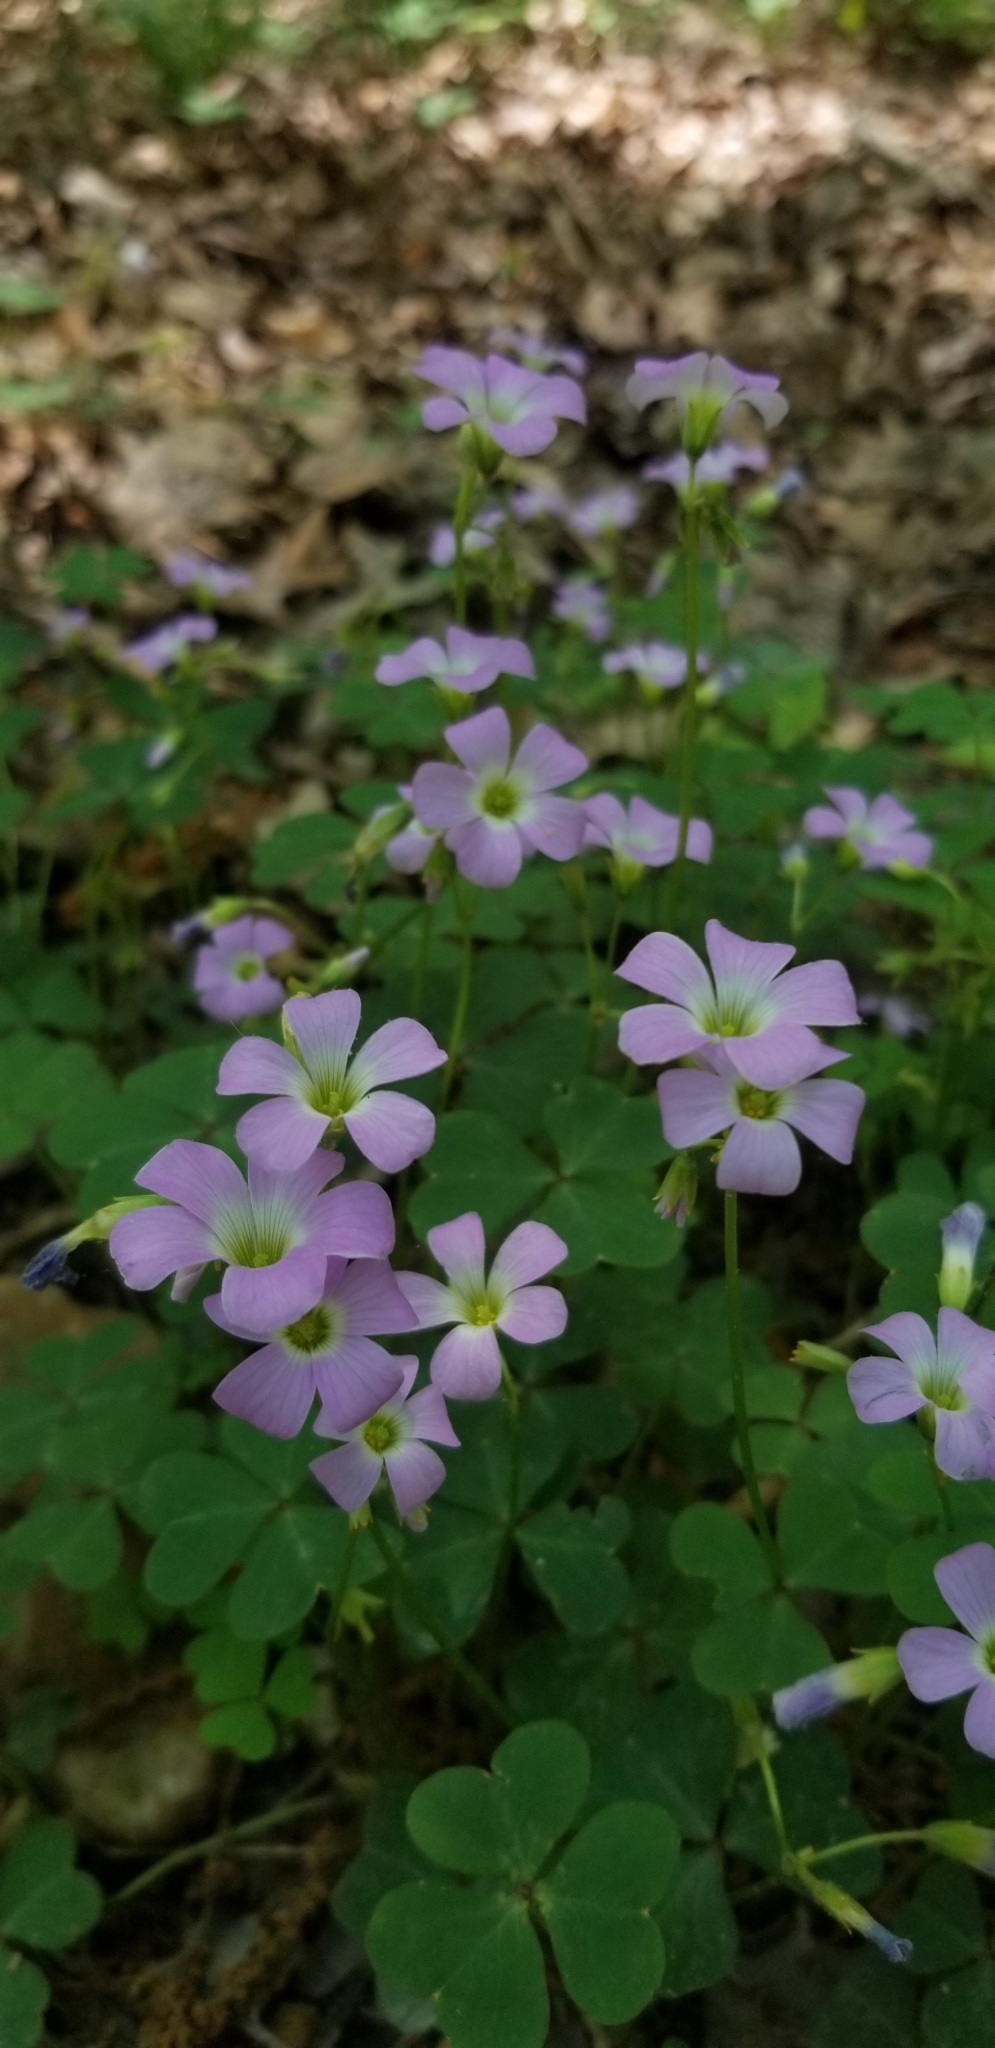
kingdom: Plantae
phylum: Tracheophyta
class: Magnoliopsida
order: Oxalidales
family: Oxalidaceae
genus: Oxalis
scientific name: Oxalis violacea
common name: Violet wood-sorrel
